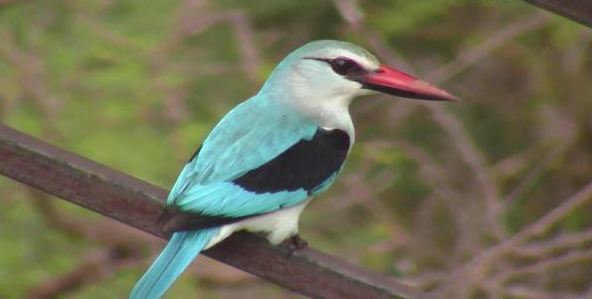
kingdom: Animalia
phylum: Chordata
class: Aves
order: Coraciiformes
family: Alcedinidae
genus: Halcyon
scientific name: Halcyon senegalensis
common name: Woodland kingfisher
